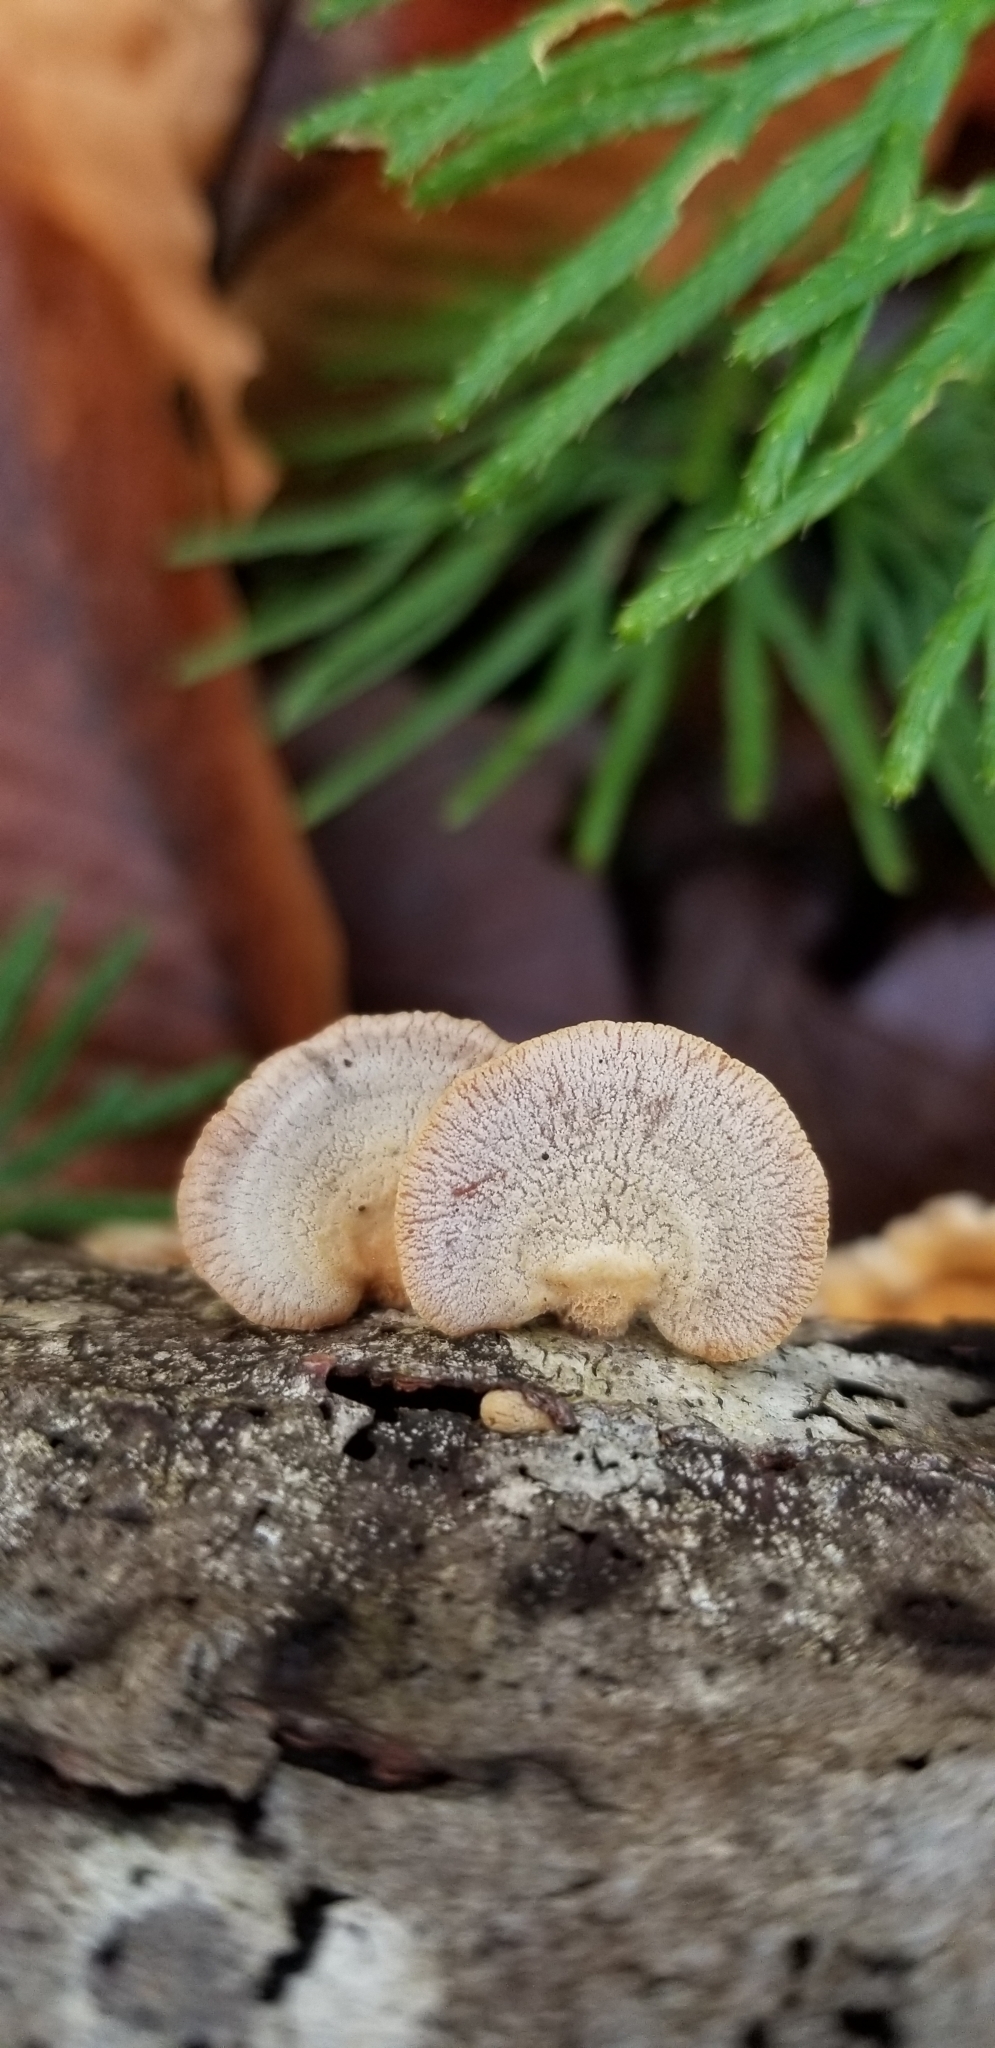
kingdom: Fungi
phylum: Basidiomycota
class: Agaricomycetes
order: Agaricales
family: Mycenaceae
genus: Panellus
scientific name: Panellus stipticus
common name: Bitter oysterling
